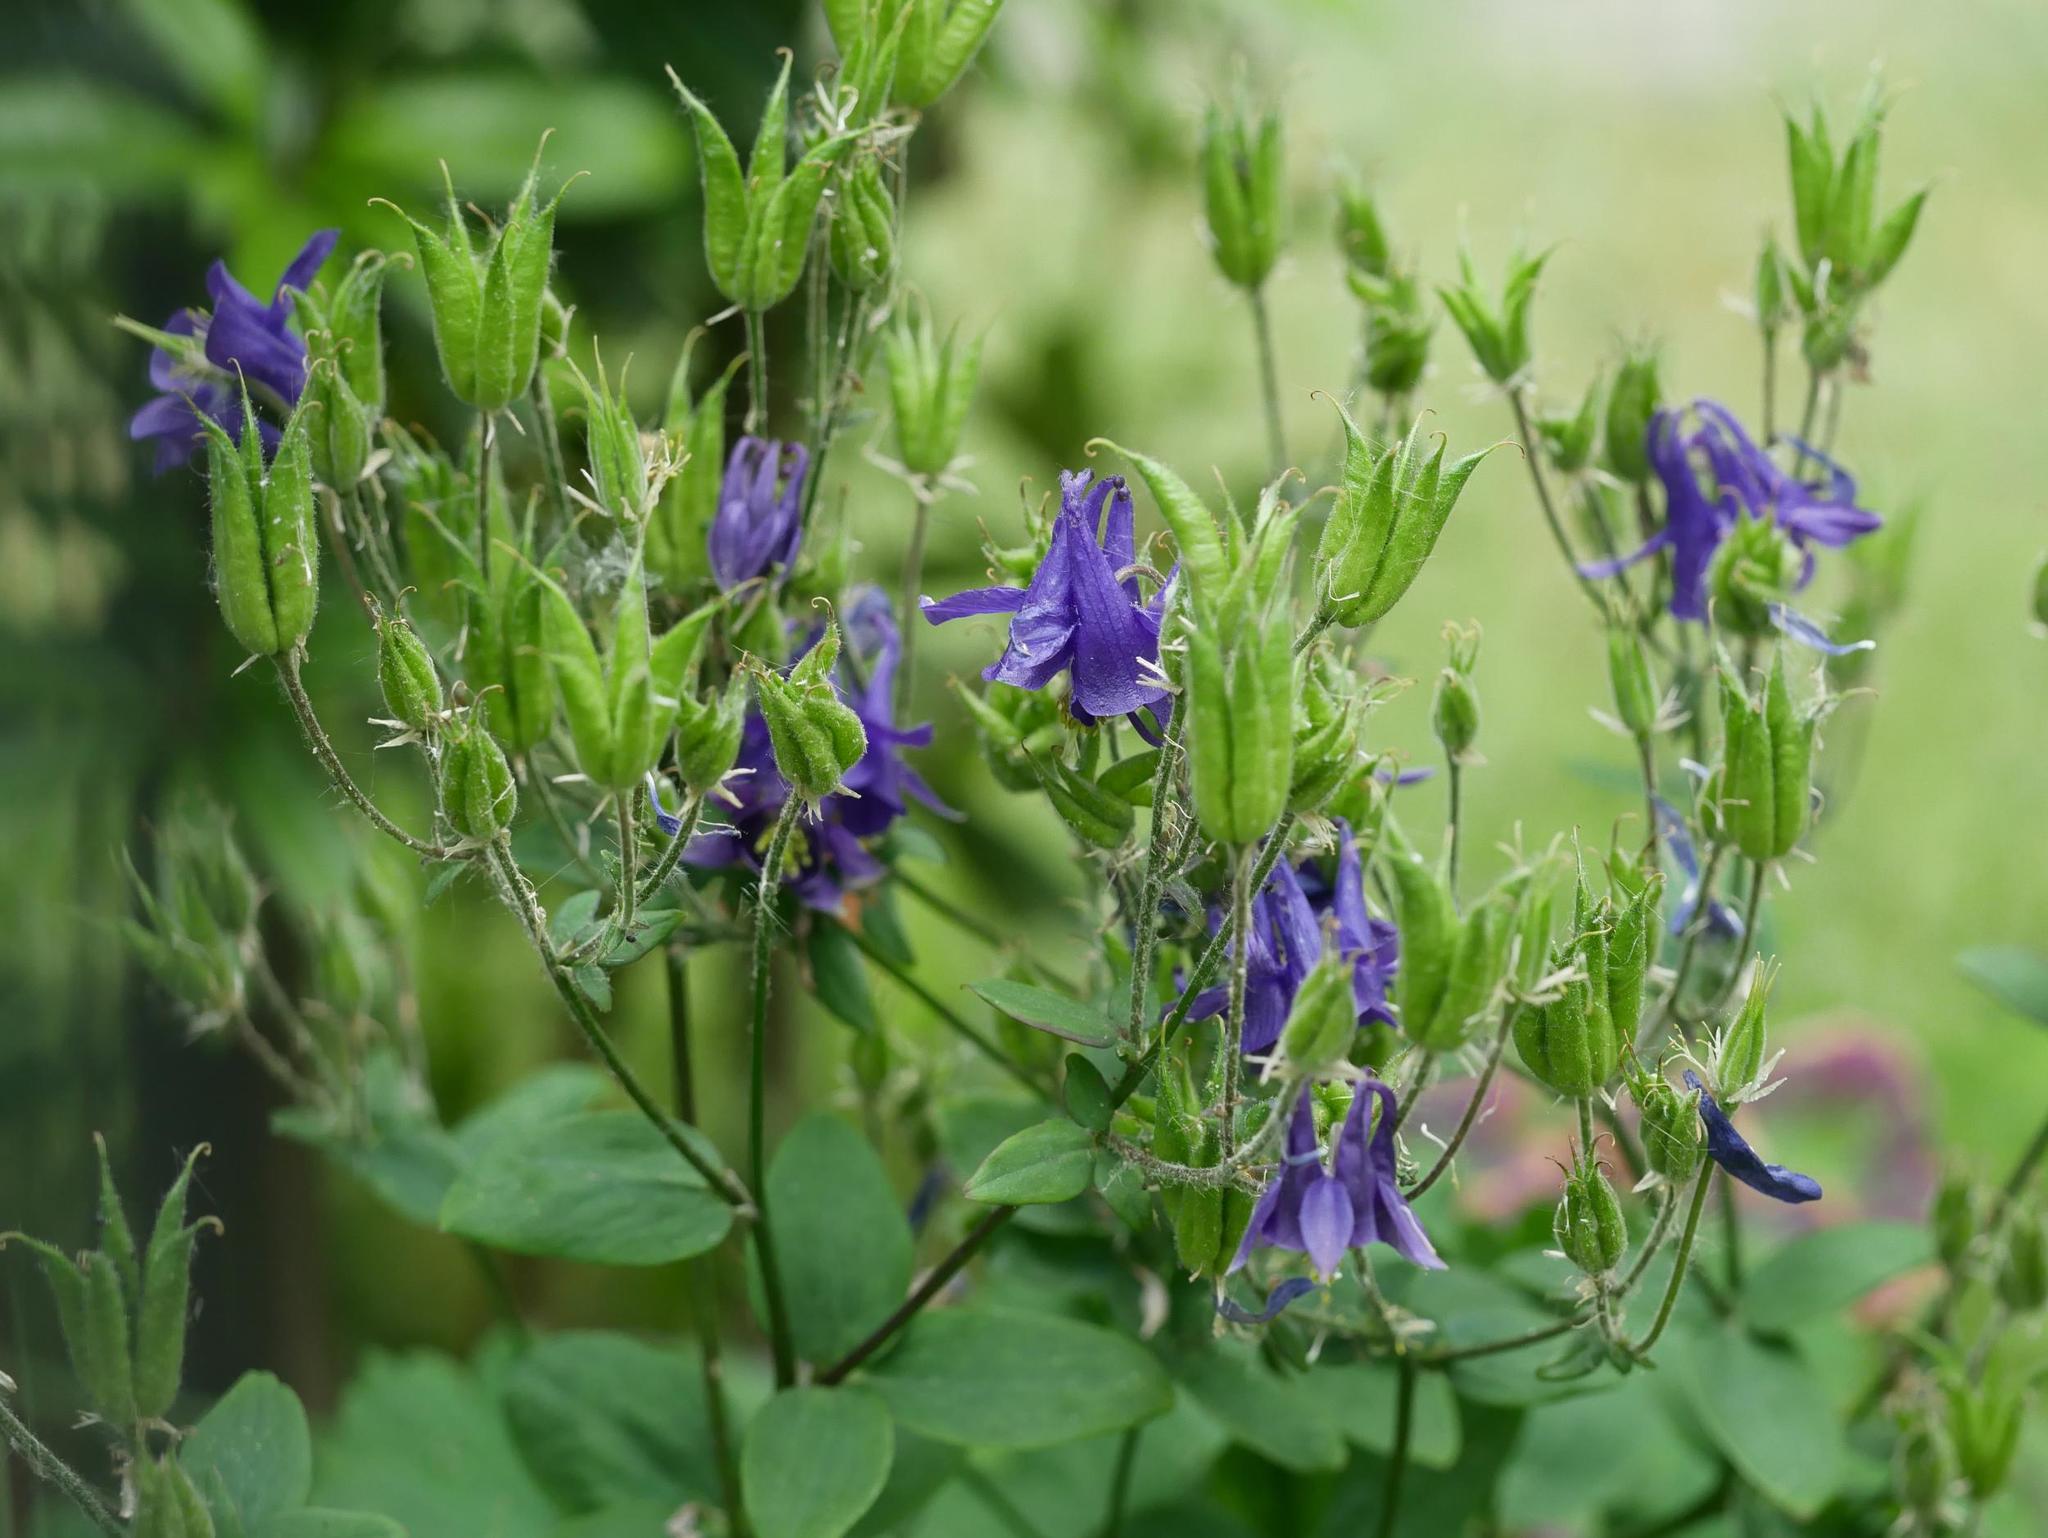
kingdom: Plantae
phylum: Tracheophyta
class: Magnoliopsida
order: Ranunculales
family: Ranunculaceae
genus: Aquilegia
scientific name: Aquilegia vulgaris
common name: Columbine
